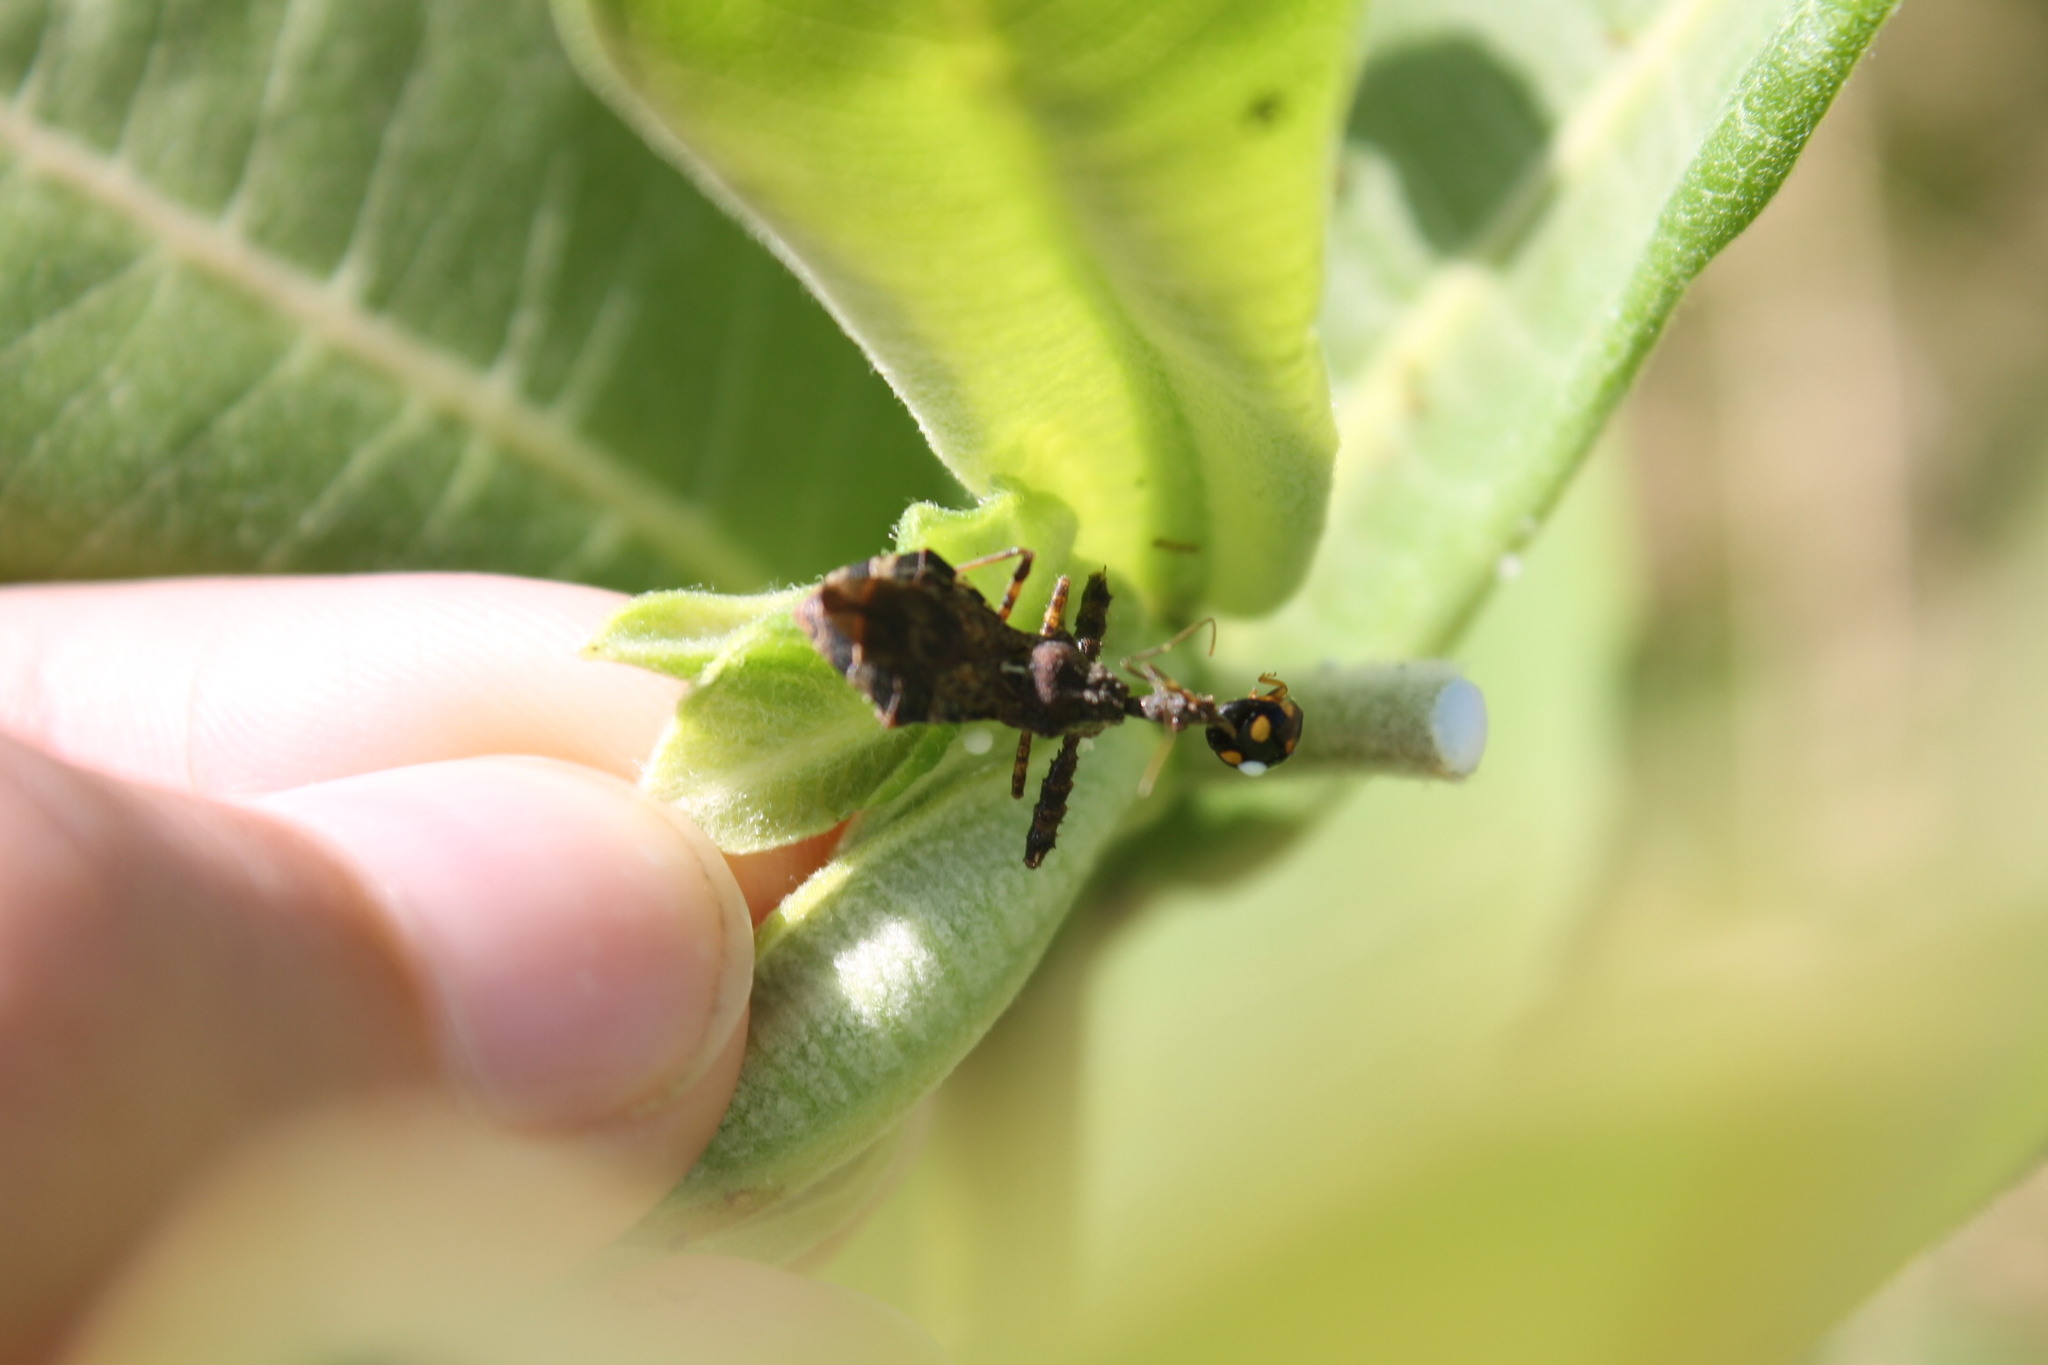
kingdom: Animalia
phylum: Arthropoda
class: Insecta
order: Coleoptera
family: Coccinellidae
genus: Brachiacantha
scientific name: Brachiacantha decempustulata
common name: Ten-spotted spurleg lady beetle
